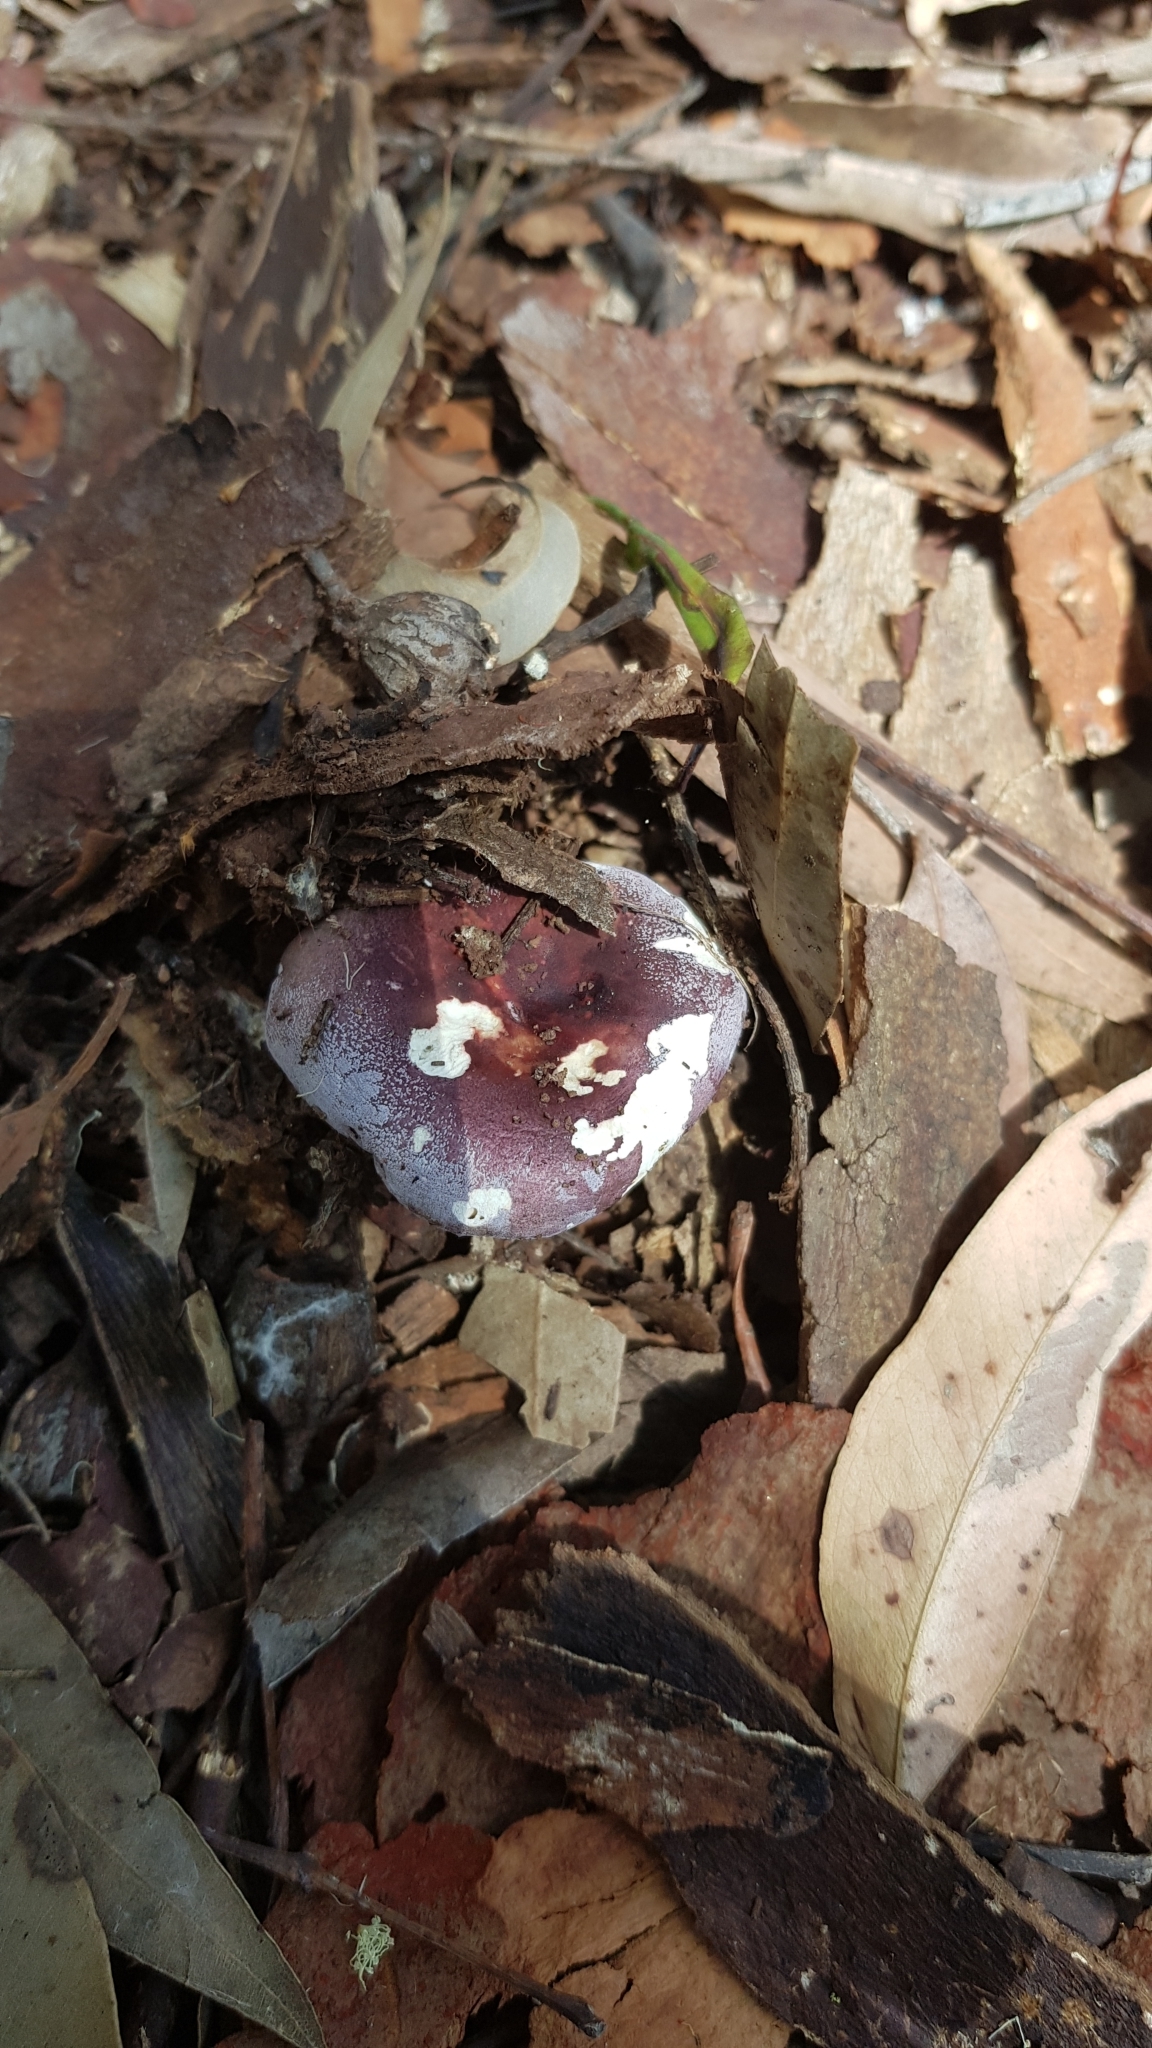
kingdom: Fungi
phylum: Basidiomycota
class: Agaricomycetes
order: Russulales
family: Russulaceae
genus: Russula
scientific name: Russula lenkunya
